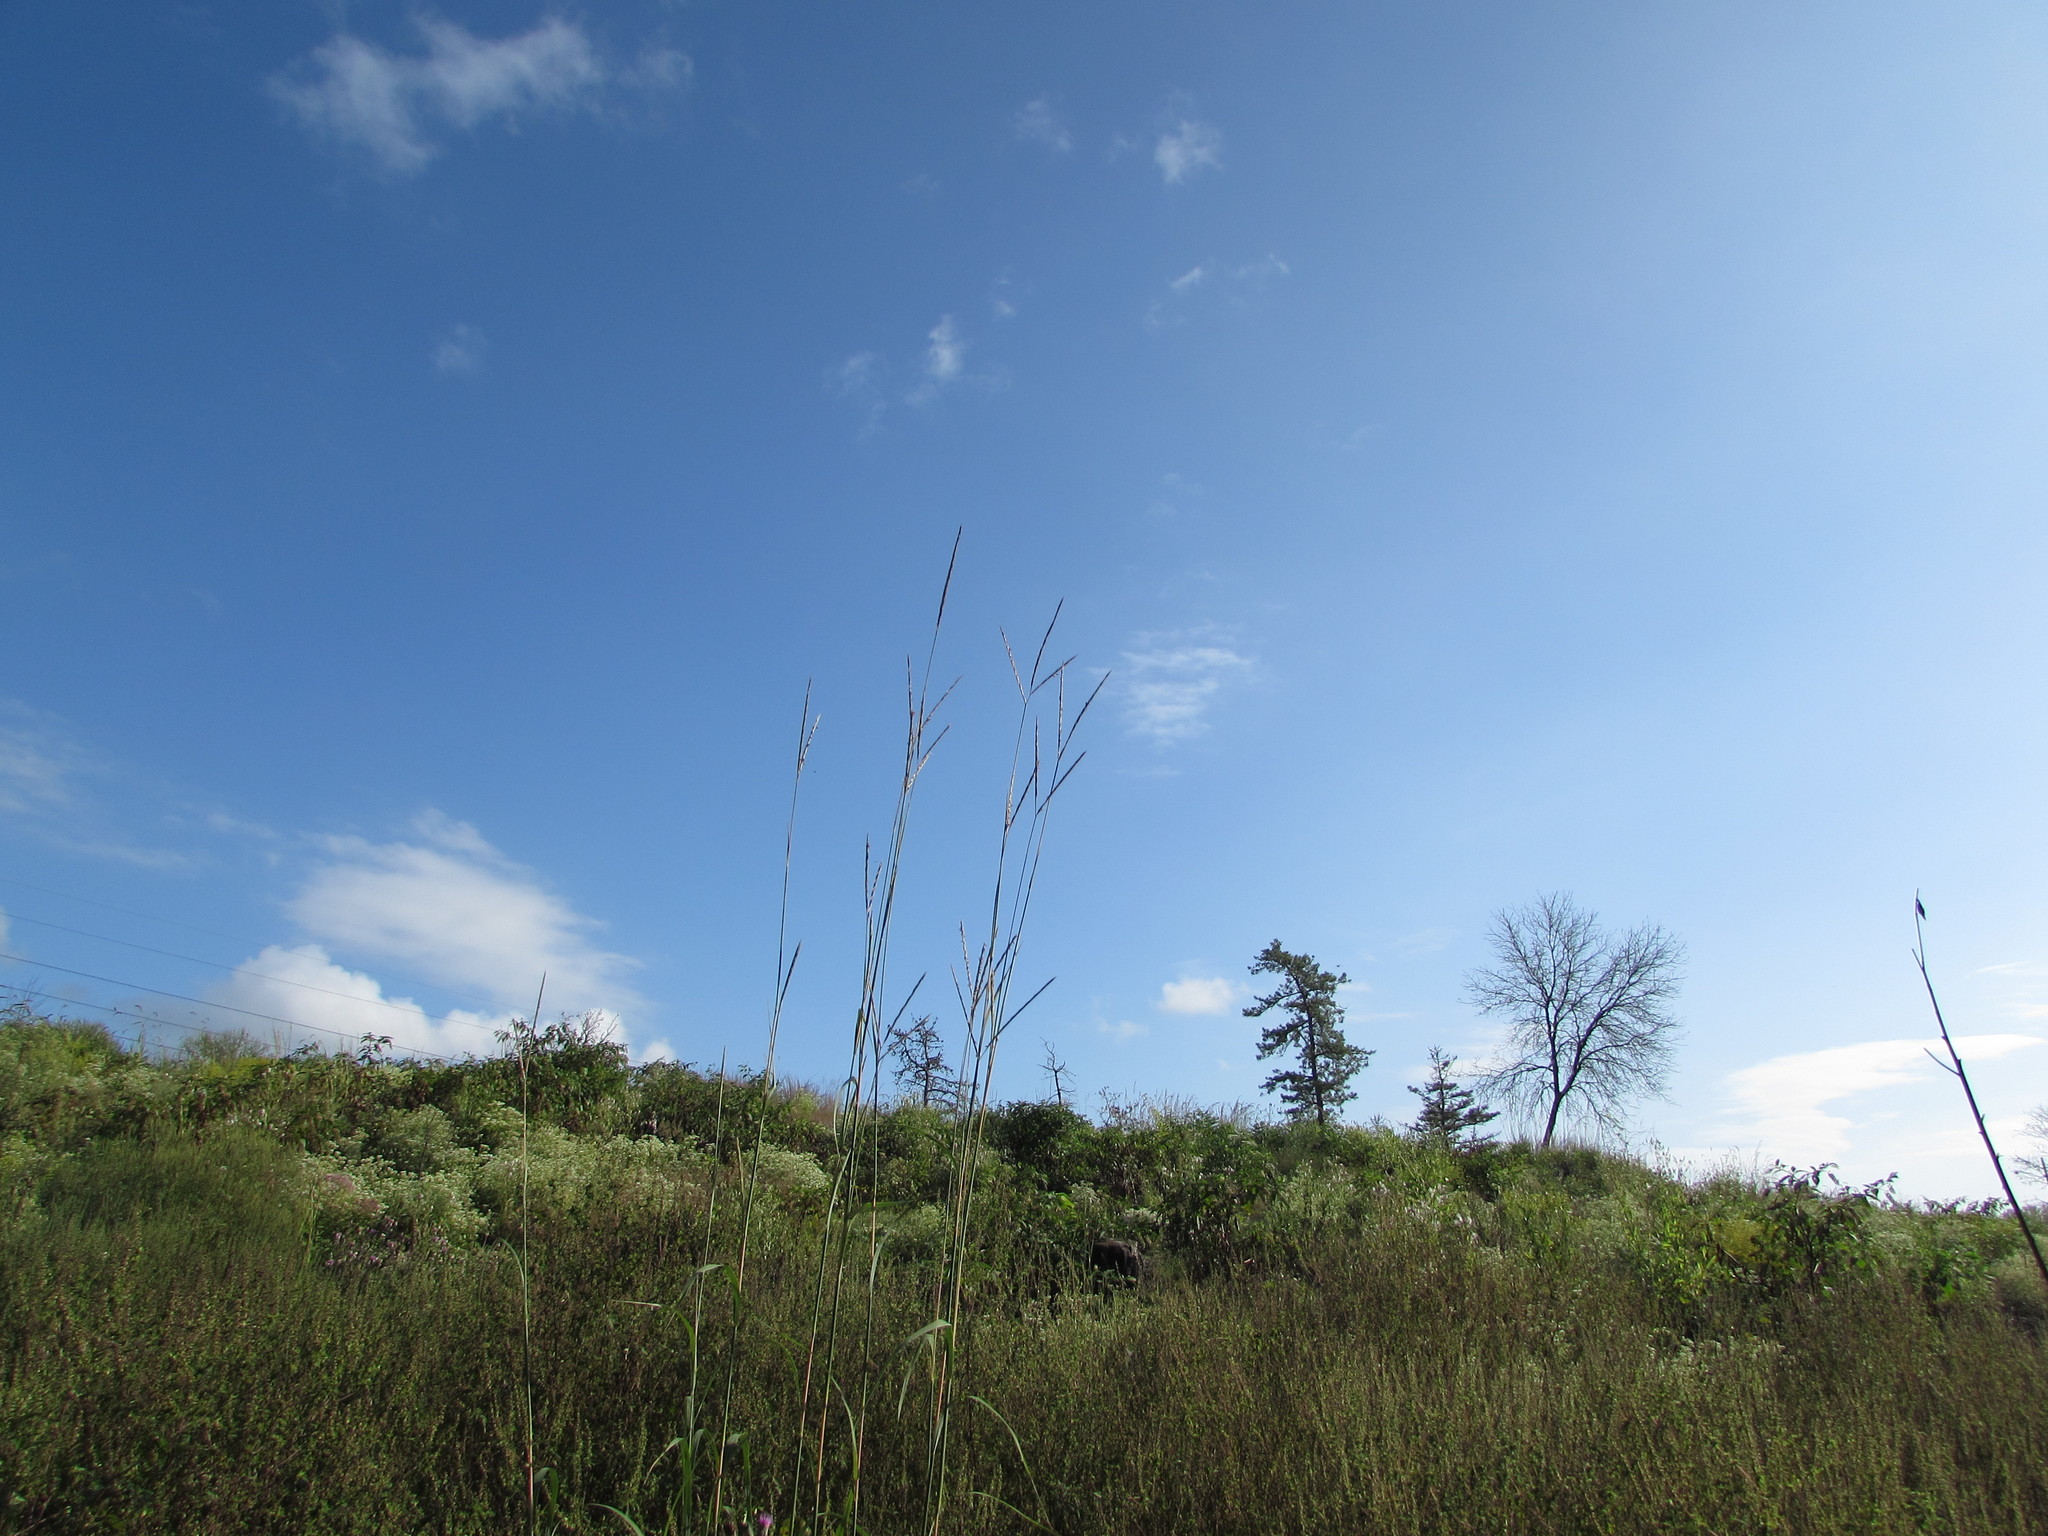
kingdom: Plantae
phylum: Tracheophyta
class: Liliopsida
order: Poales
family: Poaceae
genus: Andropogon
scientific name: Andropogon gerardi
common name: Big bluestem
